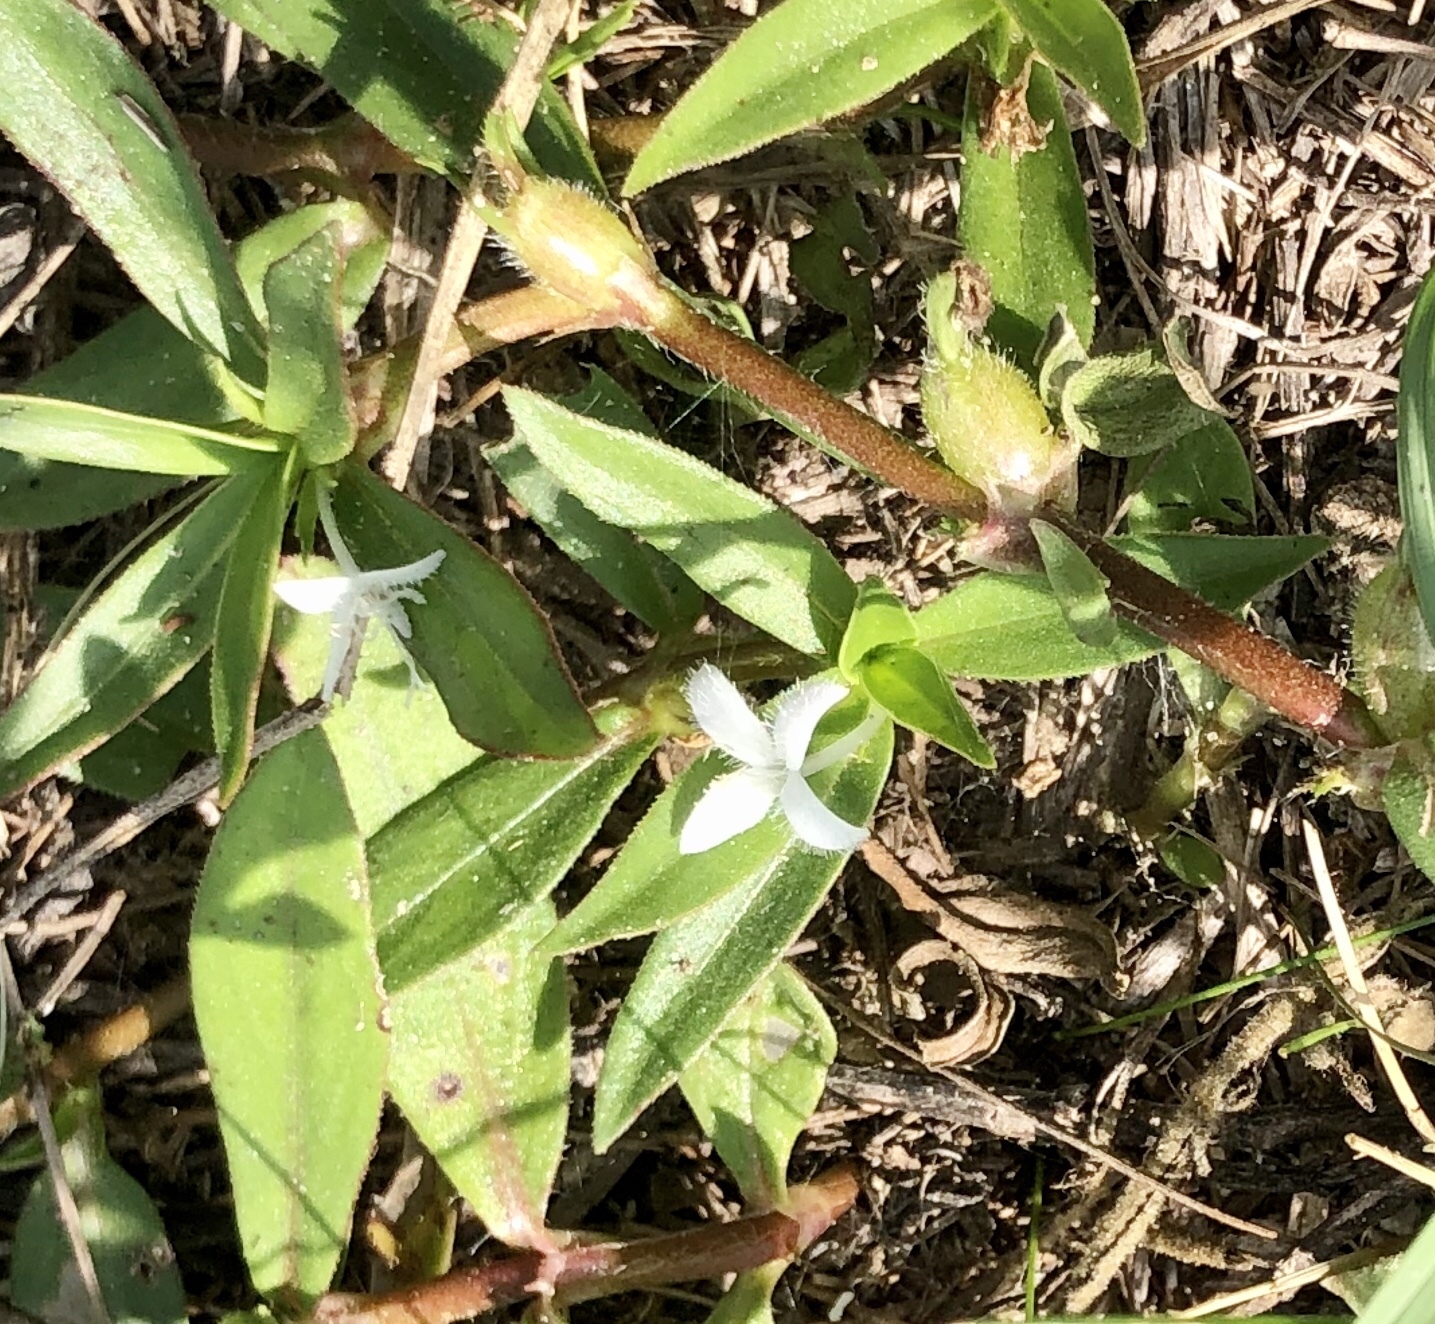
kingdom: Plantae
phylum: Tracheophyta
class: Magnoliopsida
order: Gentianales
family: Rubiaceae
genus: Diodia
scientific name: Diodia virginiana
